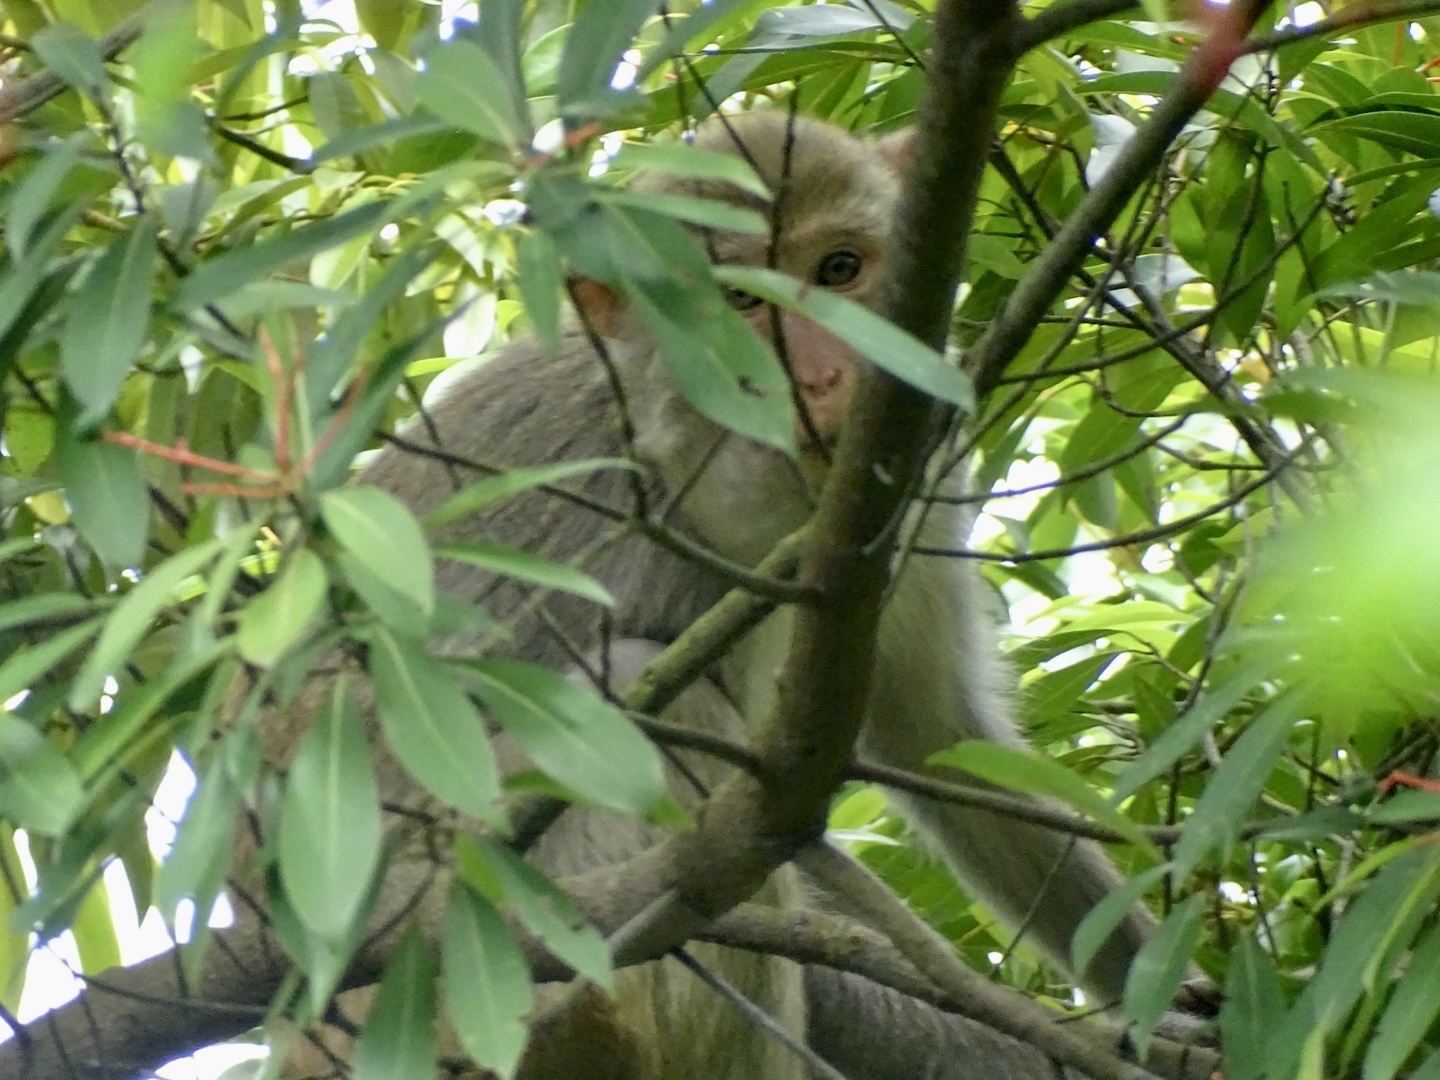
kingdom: Animalia
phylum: Chordata
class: Mammalia
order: Primates
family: Cercopithecidae
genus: Macaca
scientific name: Macaca mulatta
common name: Rhesus monkey
